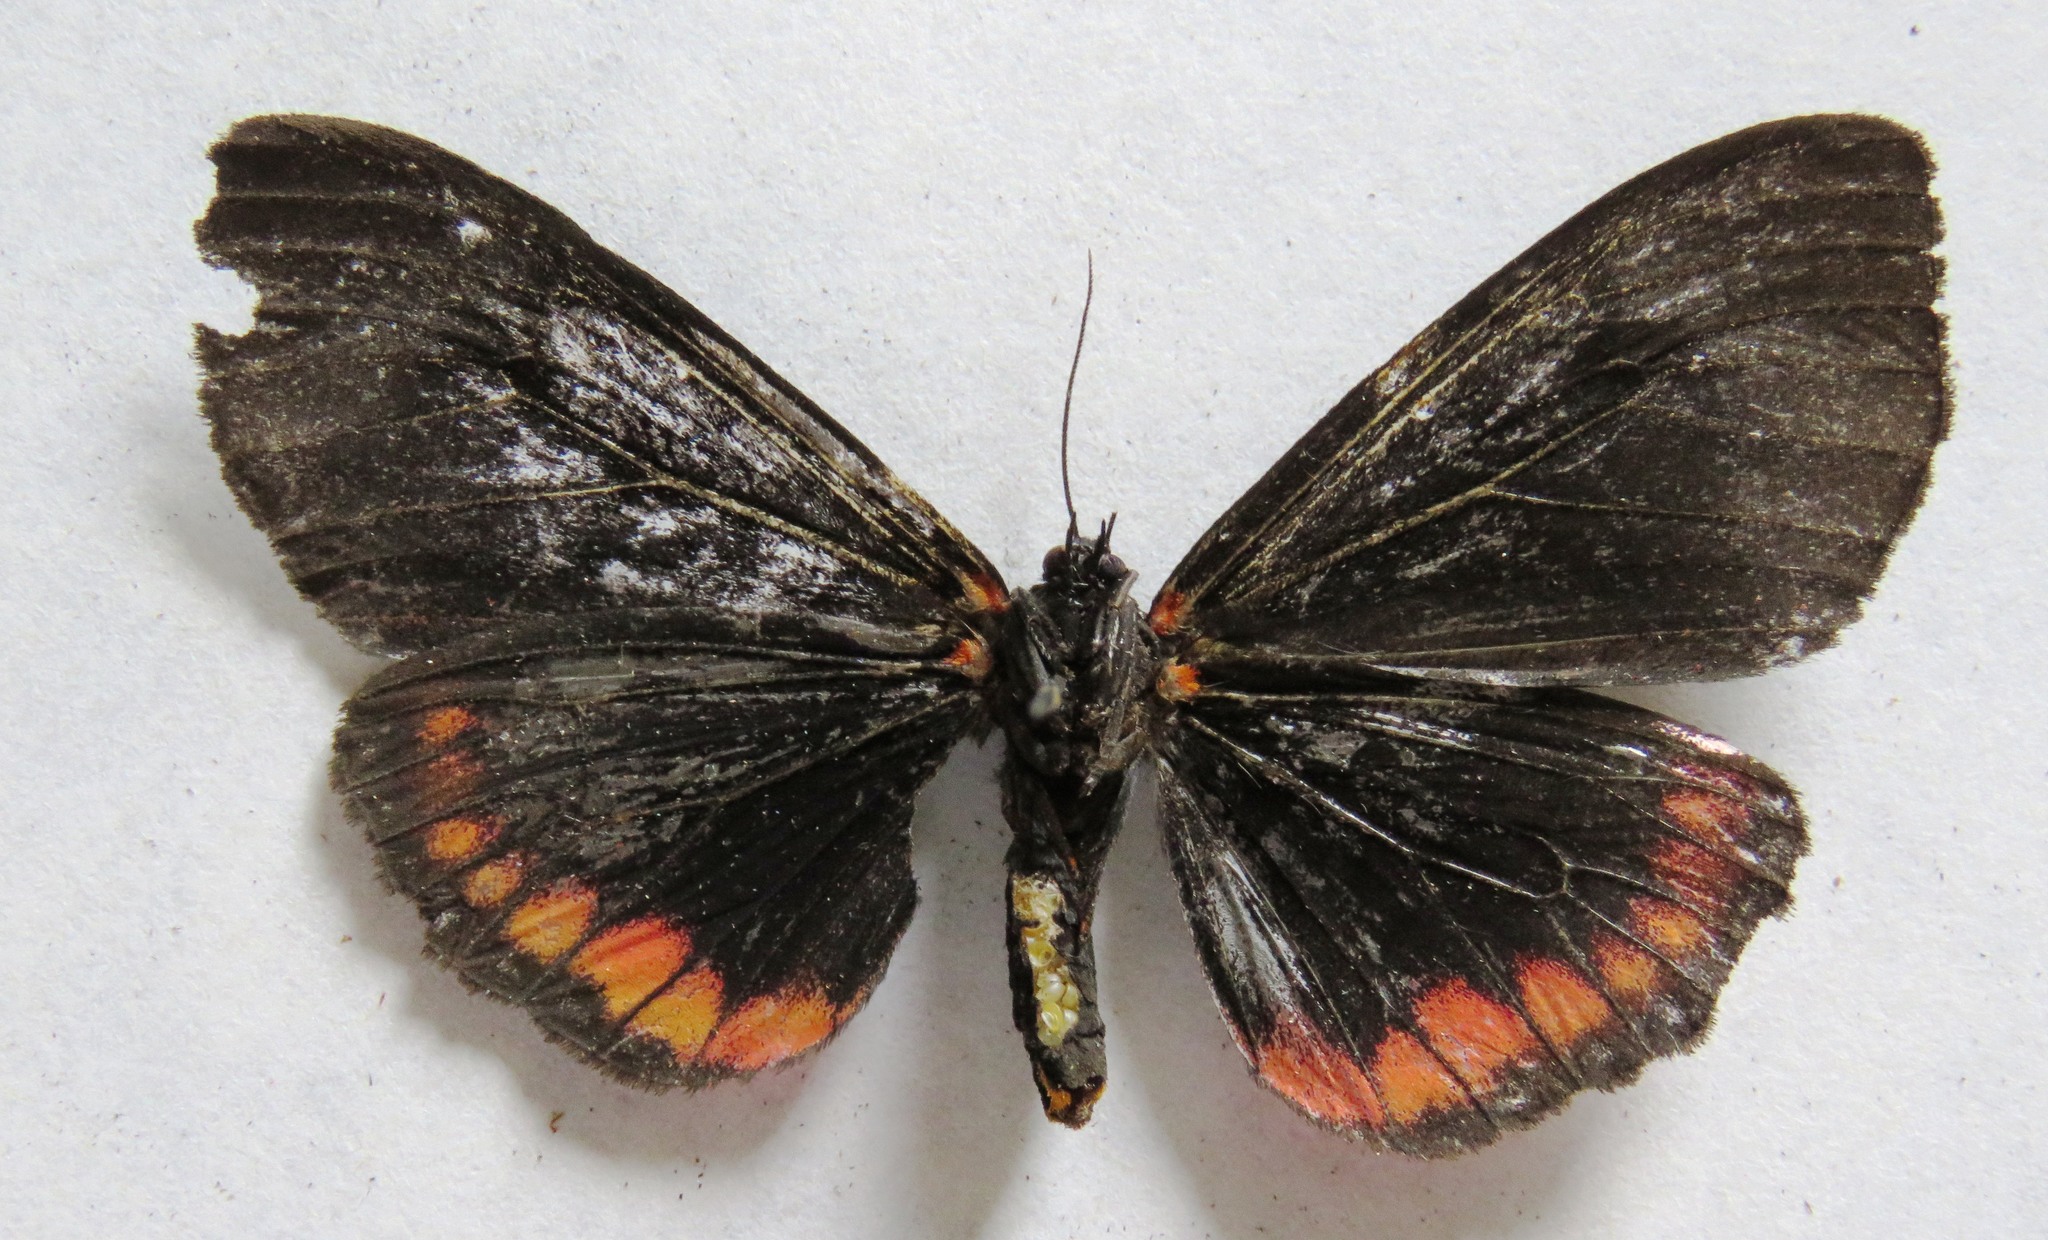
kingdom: Animalia
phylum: Arthropoda
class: Insecta
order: Lepidoptera
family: Erebidae
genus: Dysschema
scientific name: Dysschema leucophaea
